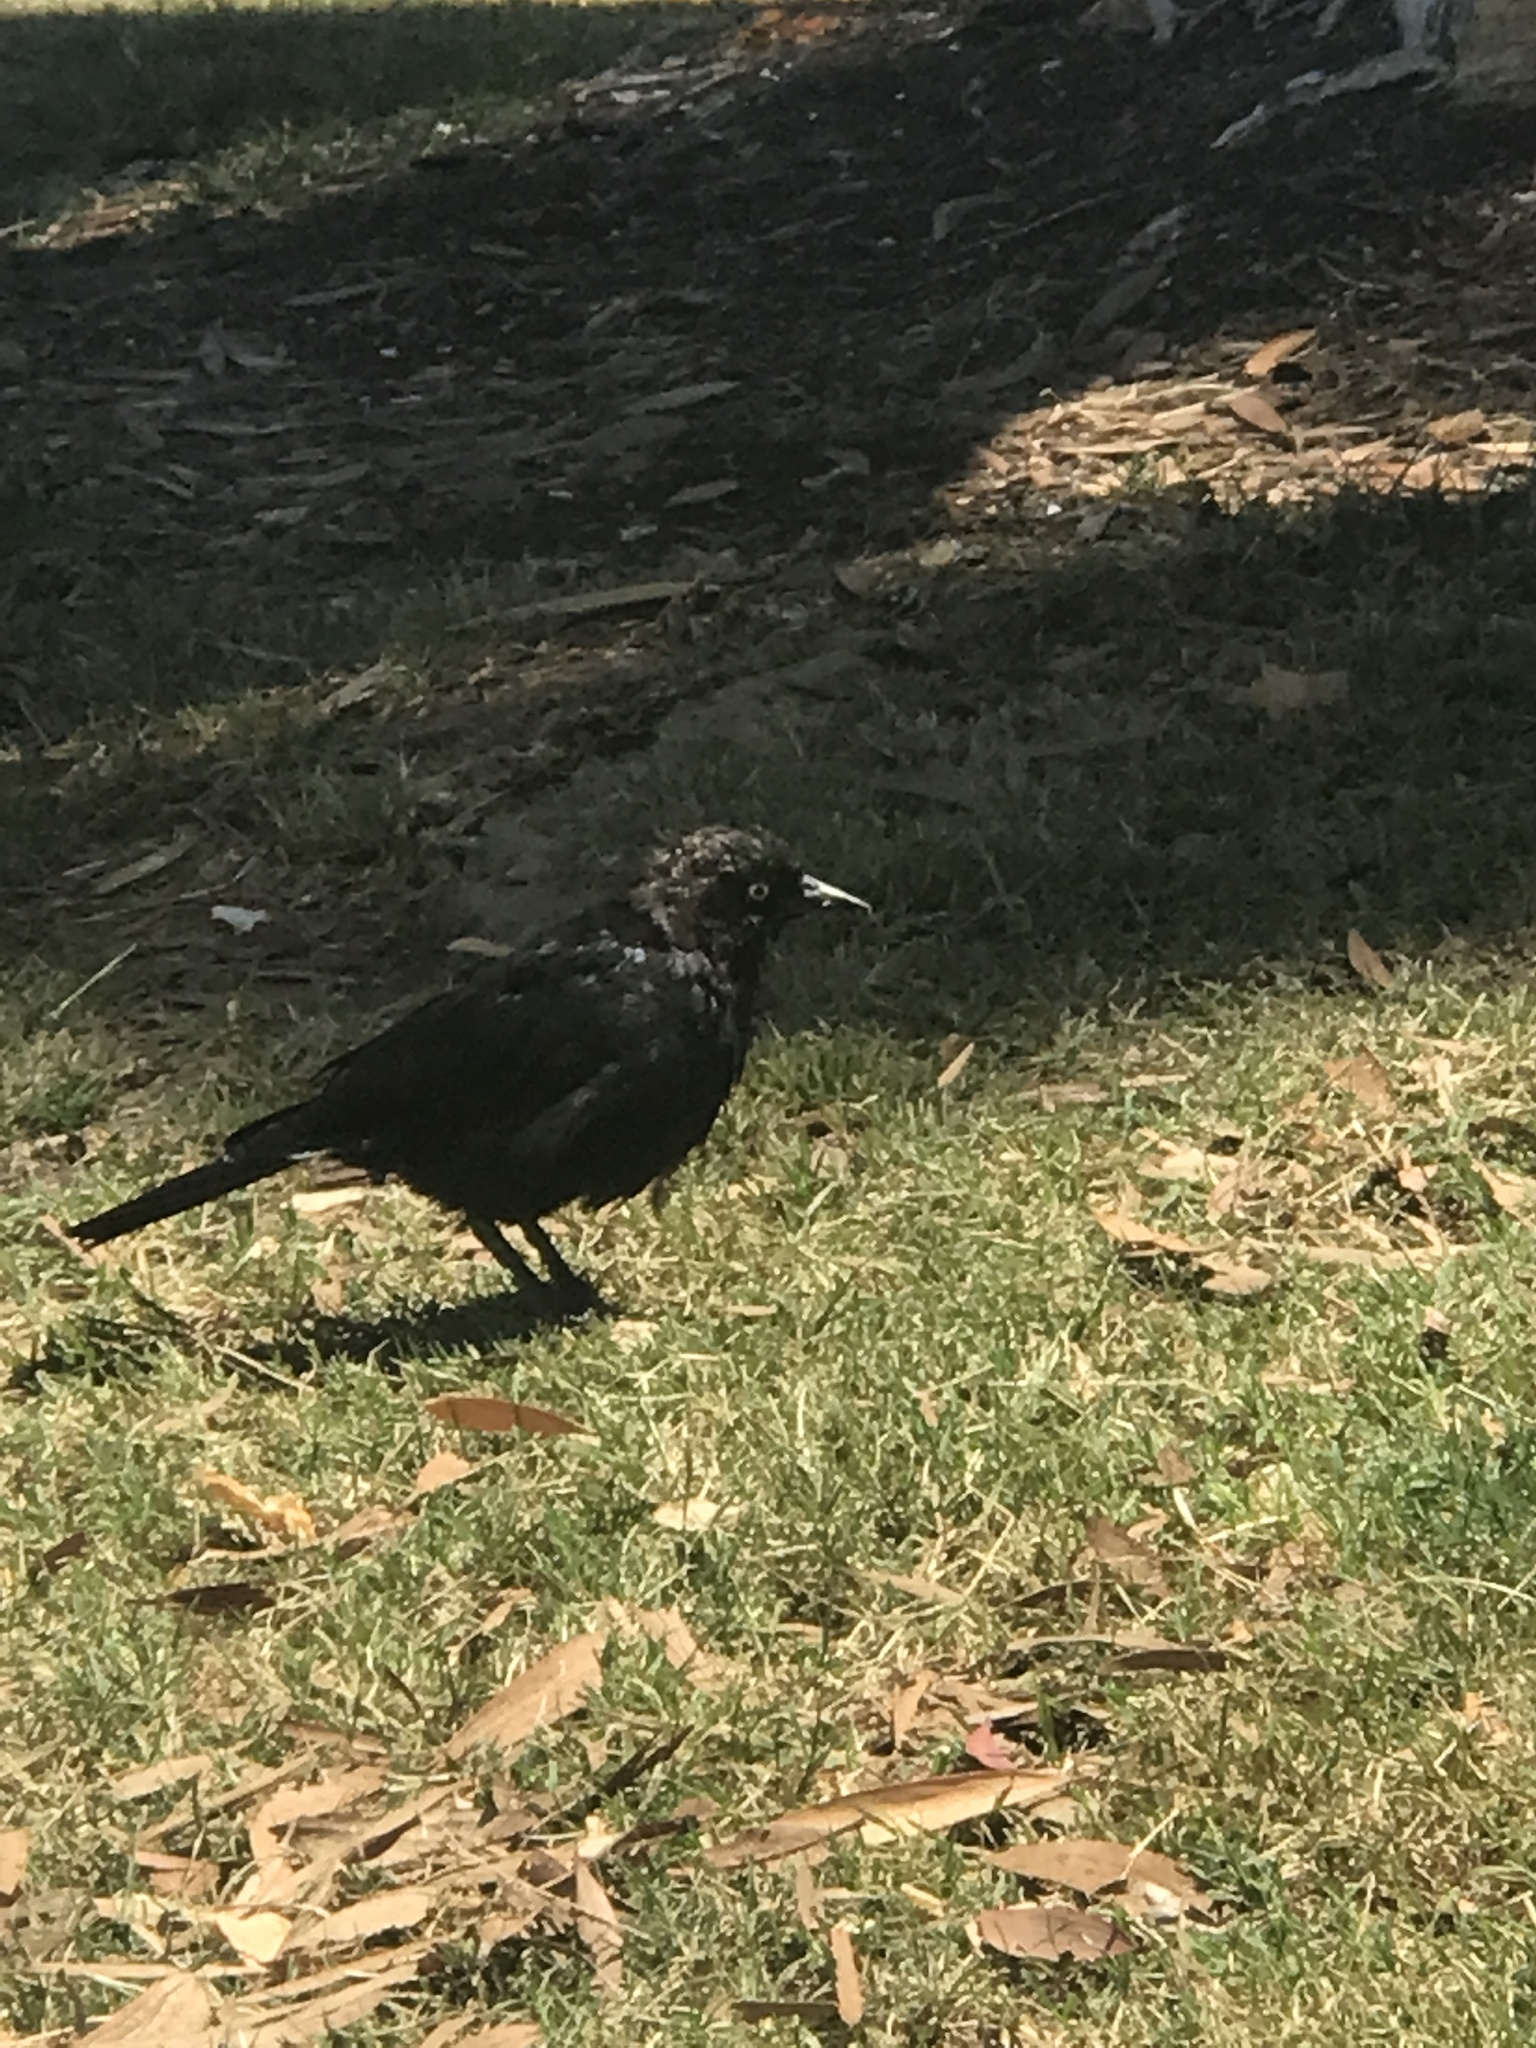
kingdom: Animalia
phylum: Chordata
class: Aves
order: Passeriformes
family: Icteridae
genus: Euphagus
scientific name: Euphagus cyanocephalus
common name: Brewer's blackbird
